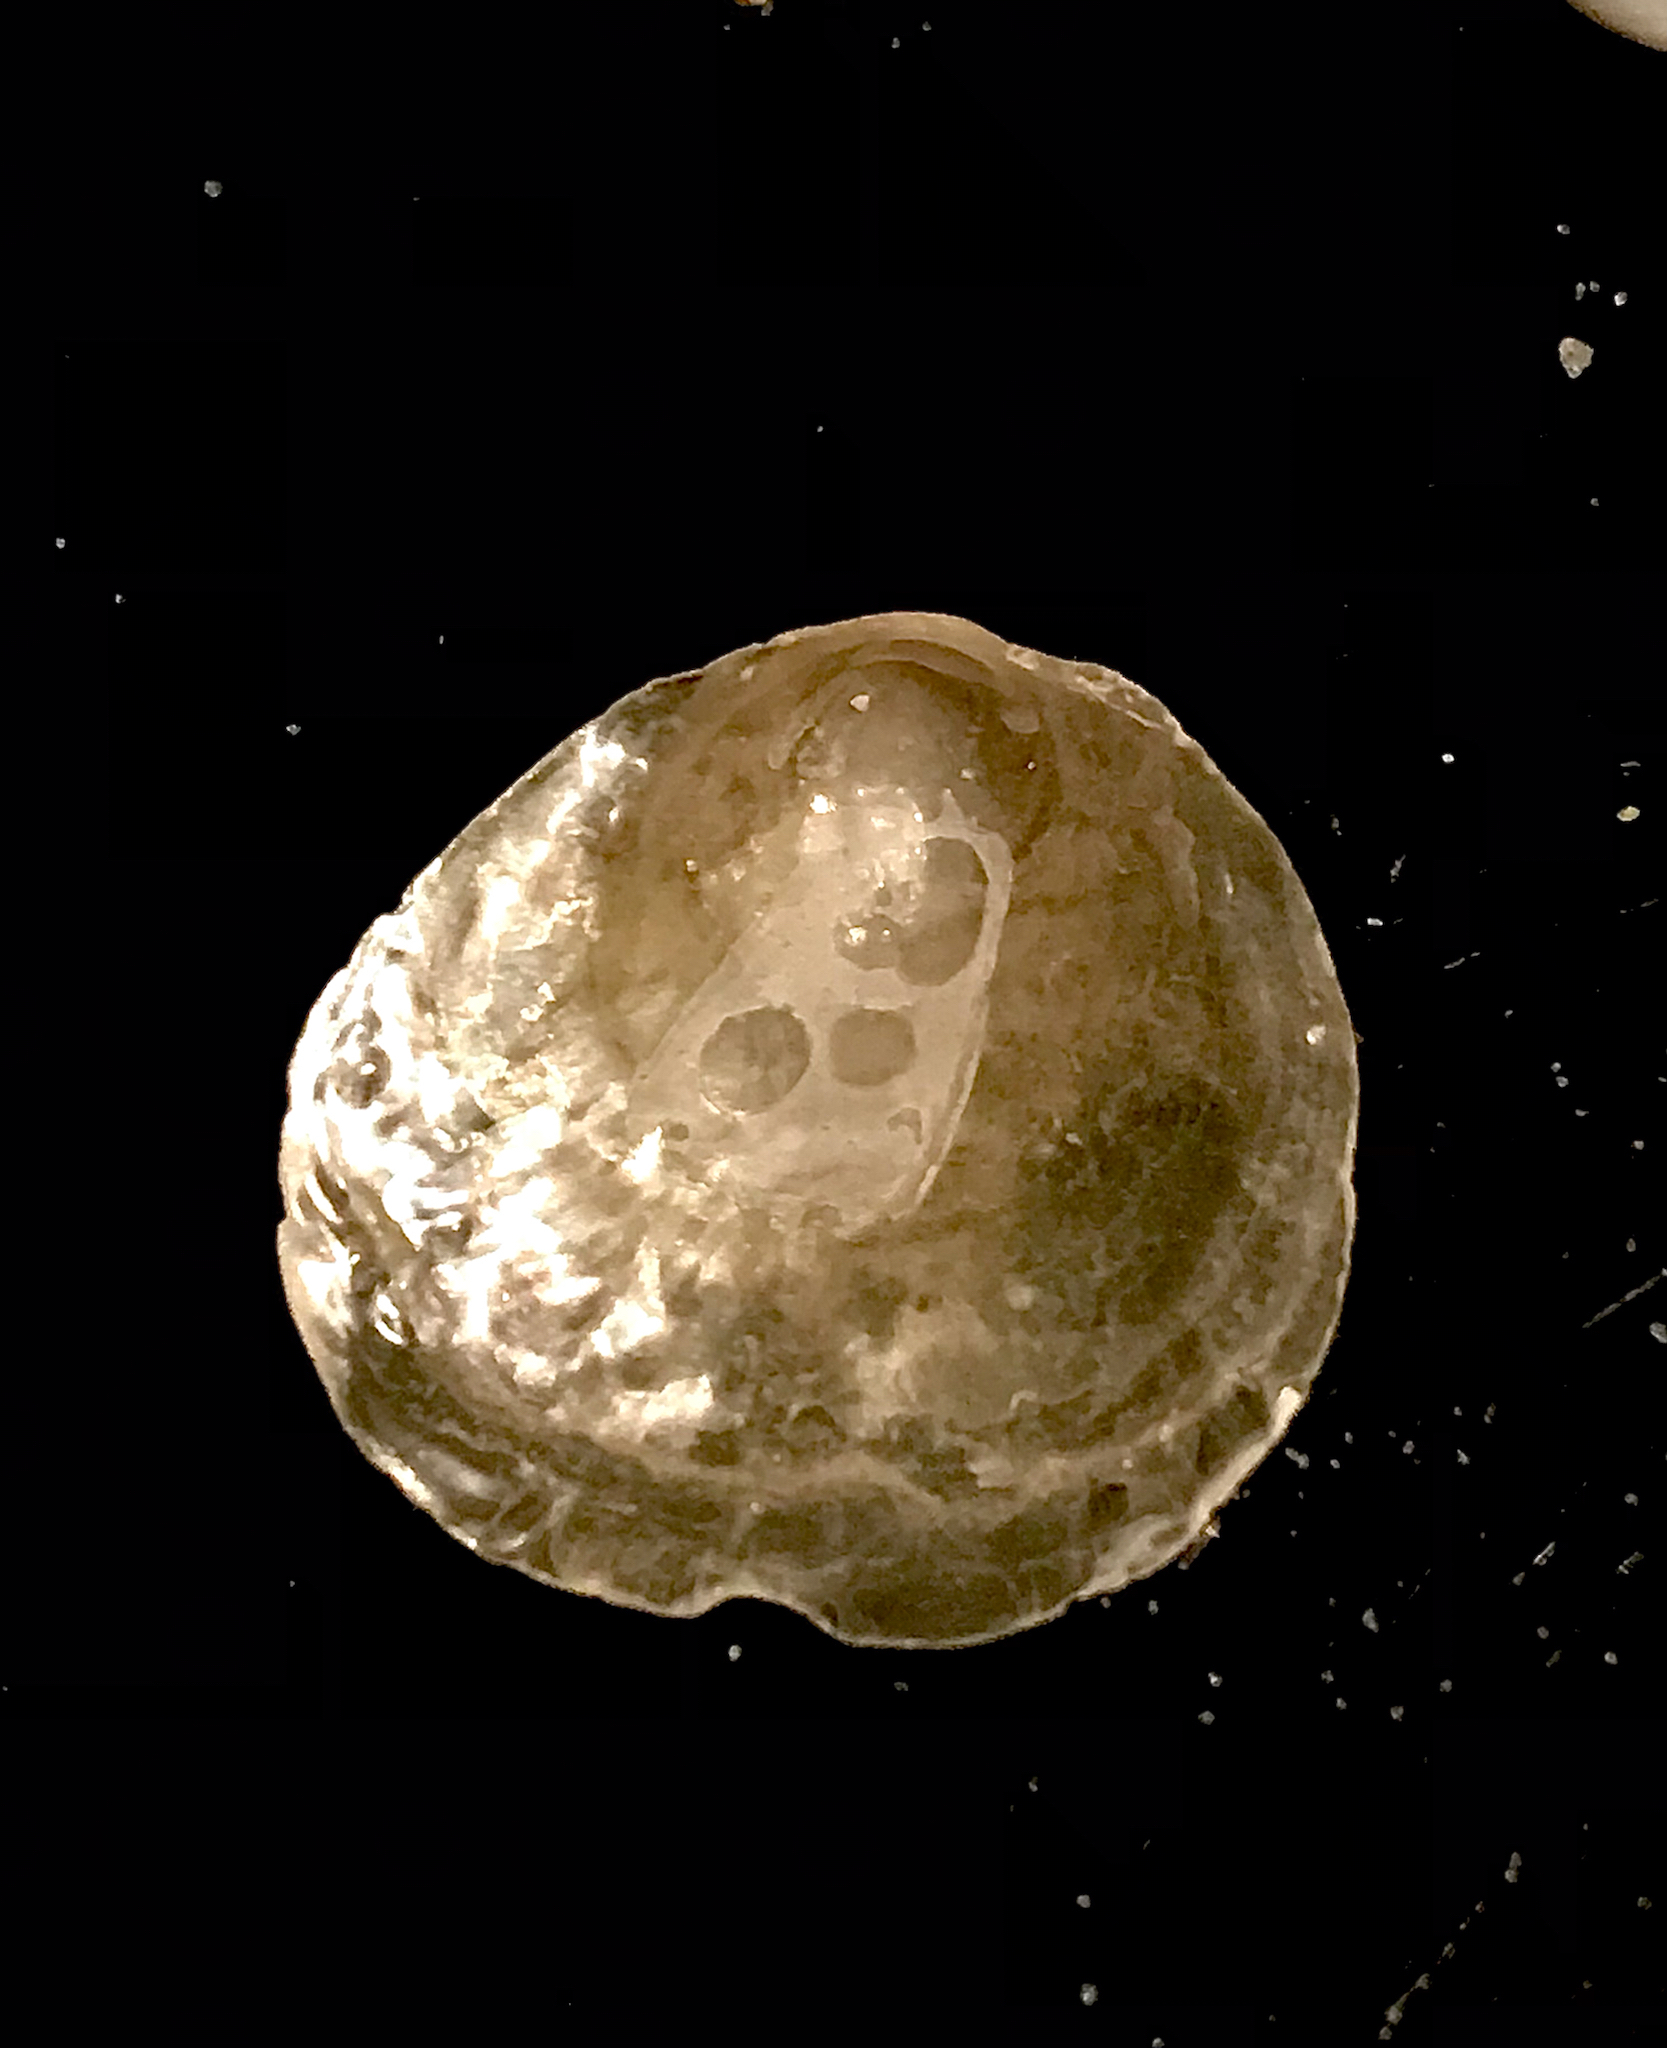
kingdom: Animalia
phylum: Mollusca
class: Bivalvia
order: Pectinida
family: Anomiidae
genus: Anomia
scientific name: Anomia simplex
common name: Common jingle shell
